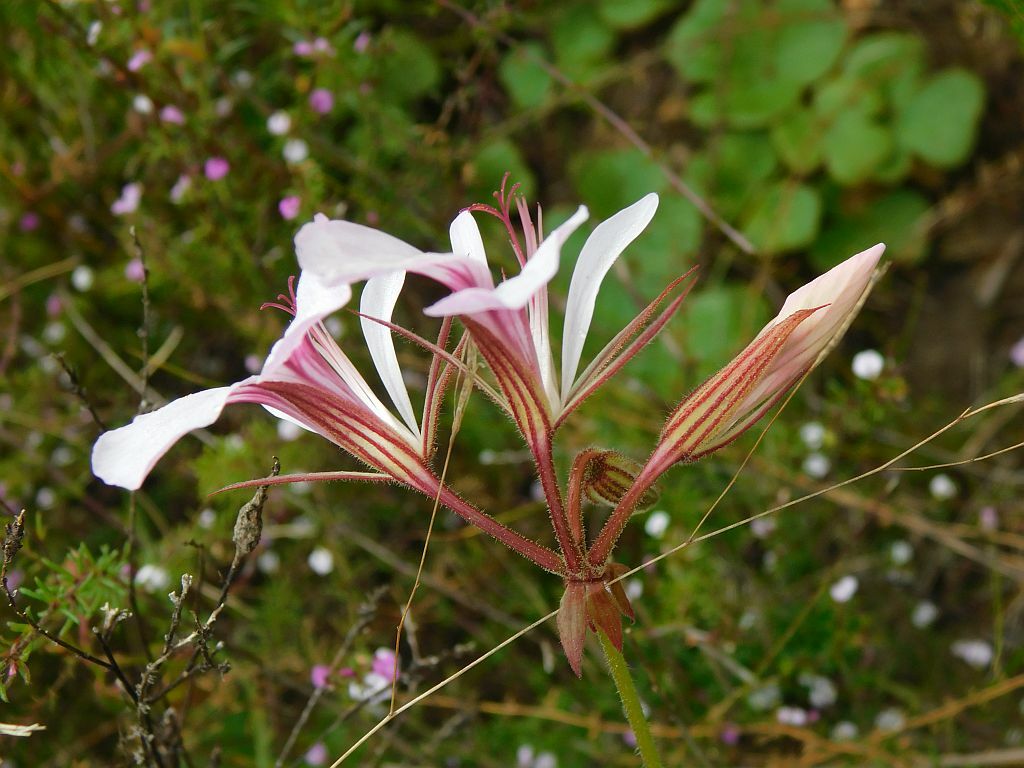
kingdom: Plantae
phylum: Tracheophyta
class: Magnoliopsida
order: Geraniales
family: Geraniaceae
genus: Pelargonium
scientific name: Pelargonium myrrhifolium
